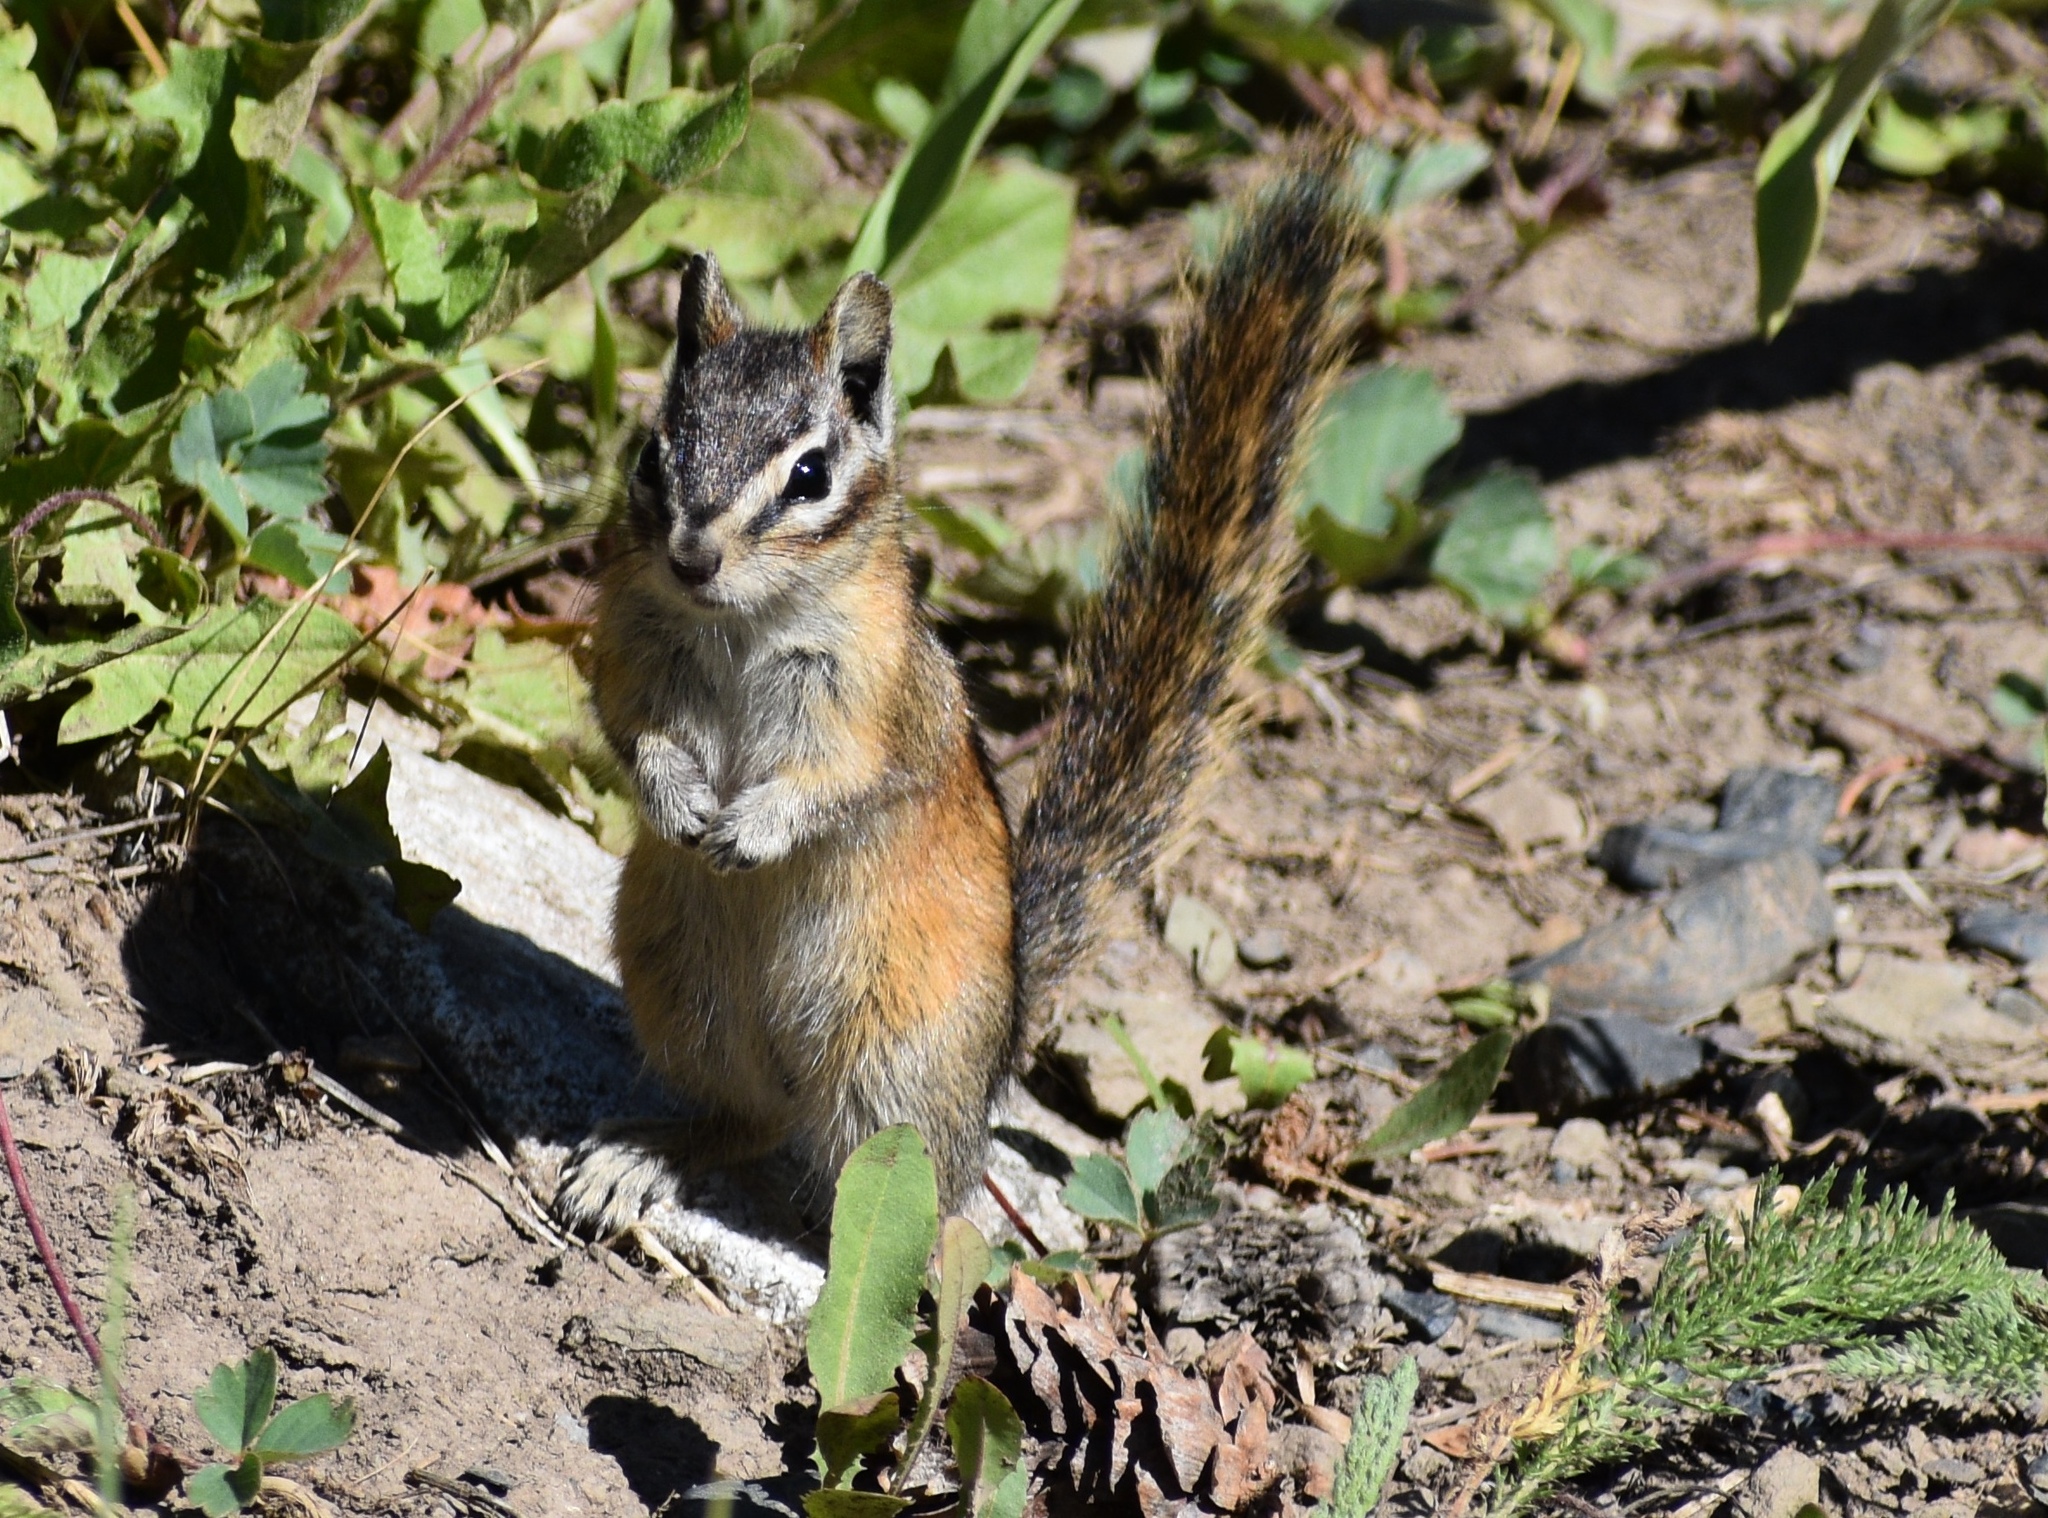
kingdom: Animalia
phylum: Chordata
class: Mammalia
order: Rodentia
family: Sciuridae
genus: Tamias
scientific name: Tamias minimus
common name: Least chipmunk
